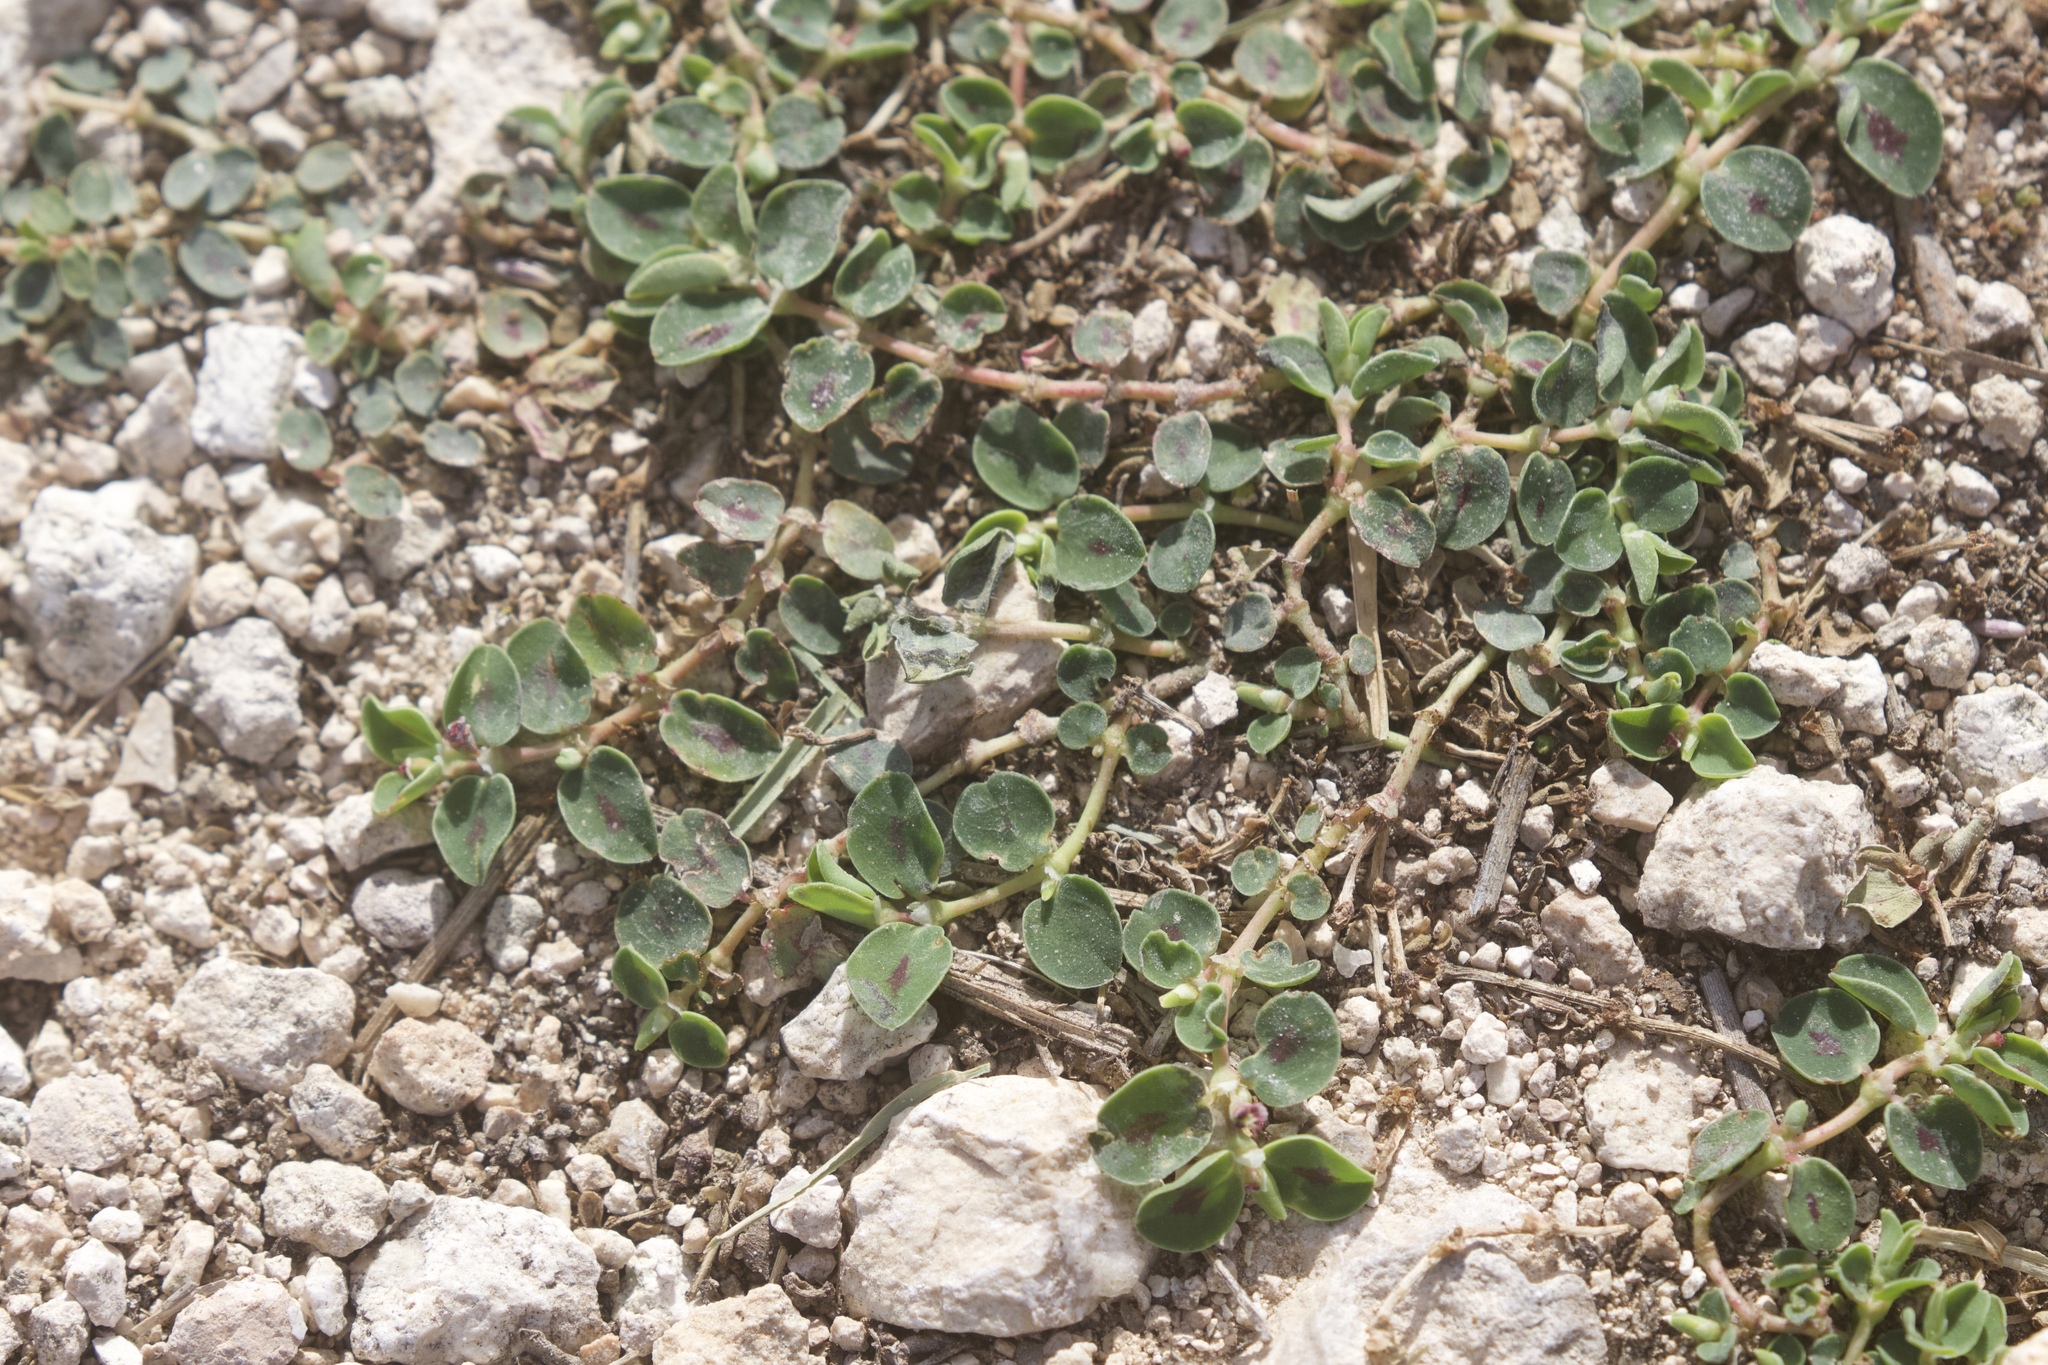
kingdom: Plantae
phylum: Tracheophyta
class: Magnoliopsida
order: Malpighiales
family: Euphorbiaceae
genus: Euphorbia
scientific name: Euphorbia albomarginata
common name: Whitemargin sandmat
